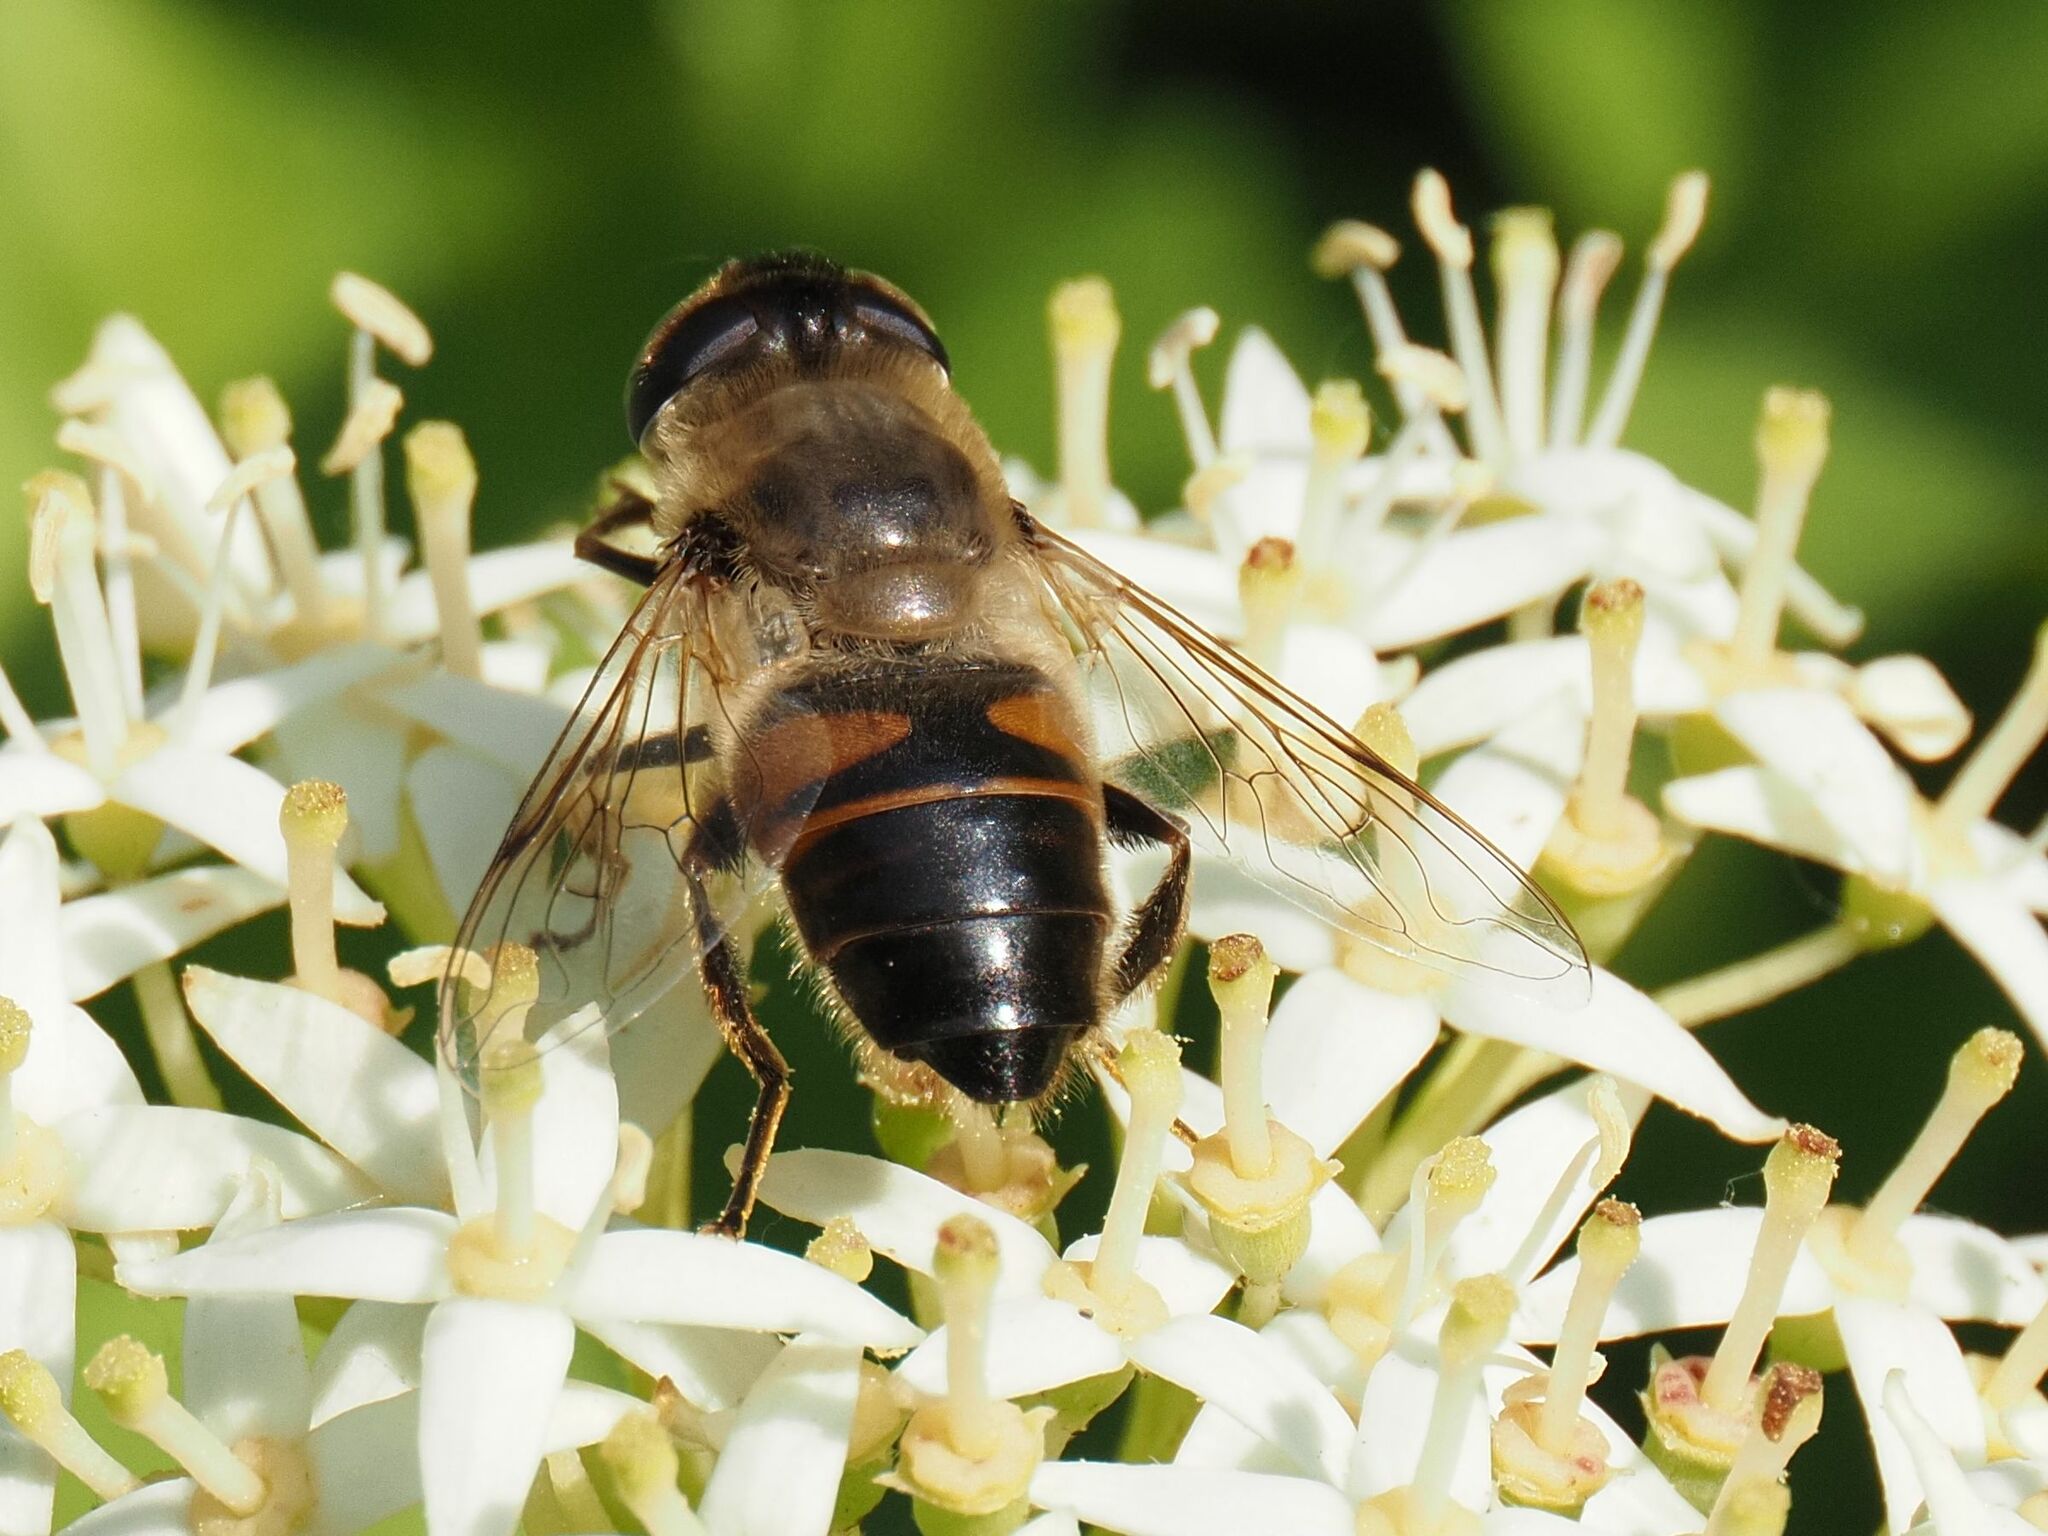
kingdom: Animalia
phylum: Arthropoda
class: Insecta
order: Diptera
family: Syrphidae
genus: Eristalis
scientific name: Eristalis tenax
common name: Drone fly
